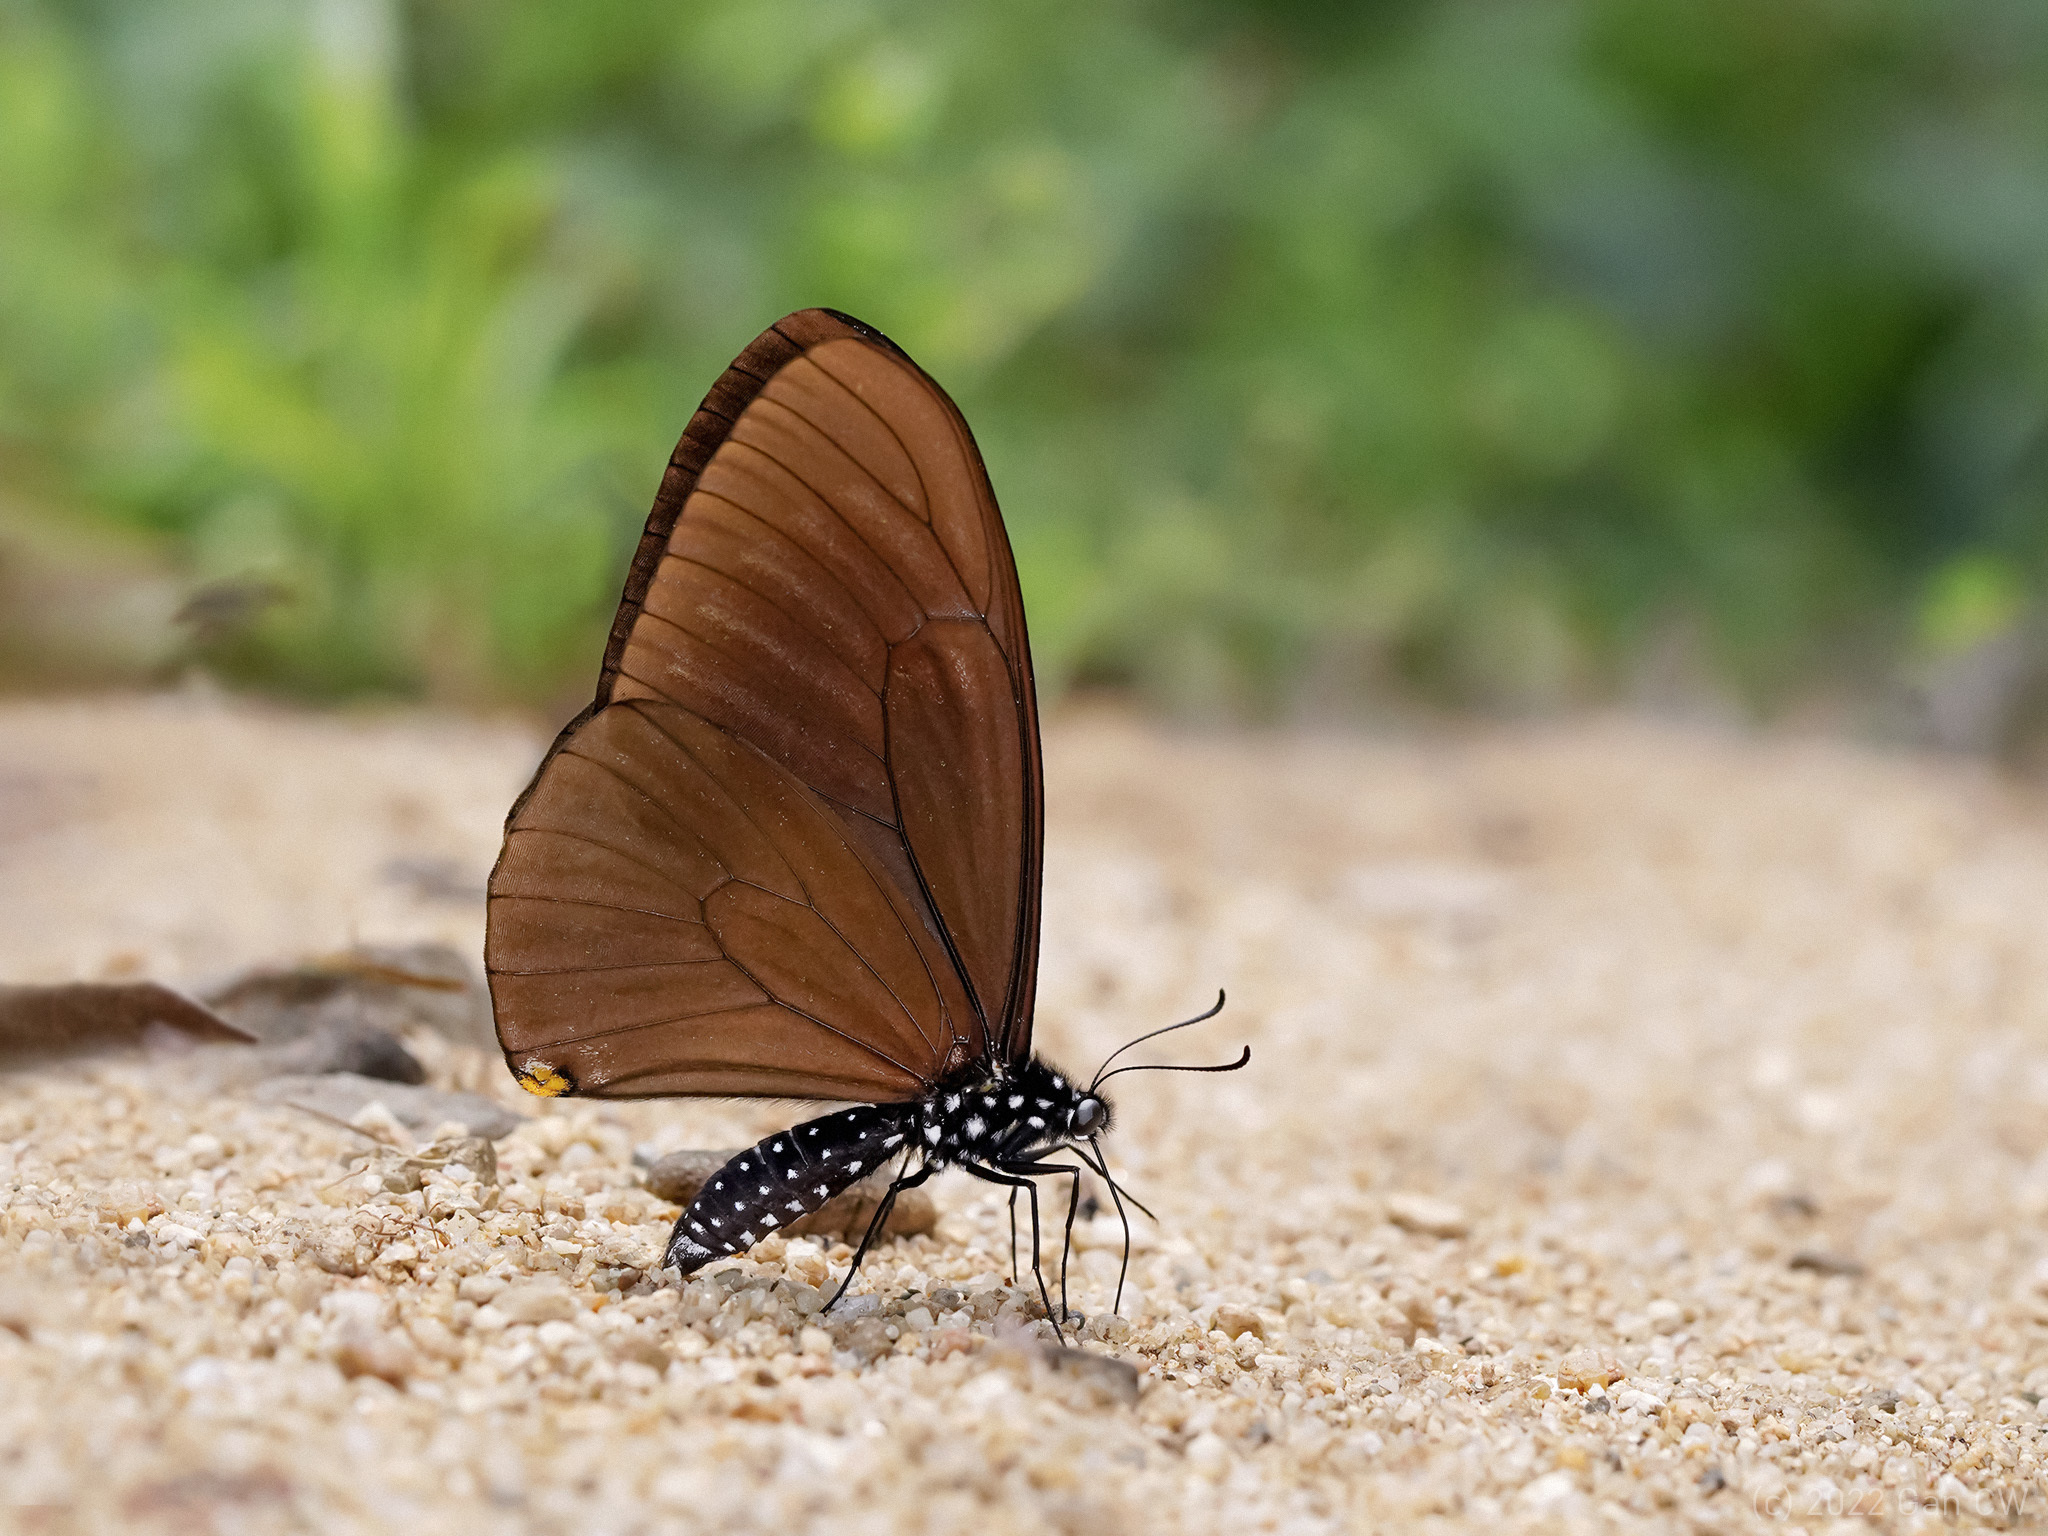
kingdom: Animalia
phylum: Arthropoda
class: Insecta
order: Lepidoptera
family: Papilionidae
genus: Papilio
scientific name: Papilio slateri
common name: Blue striped mime swallowtail
